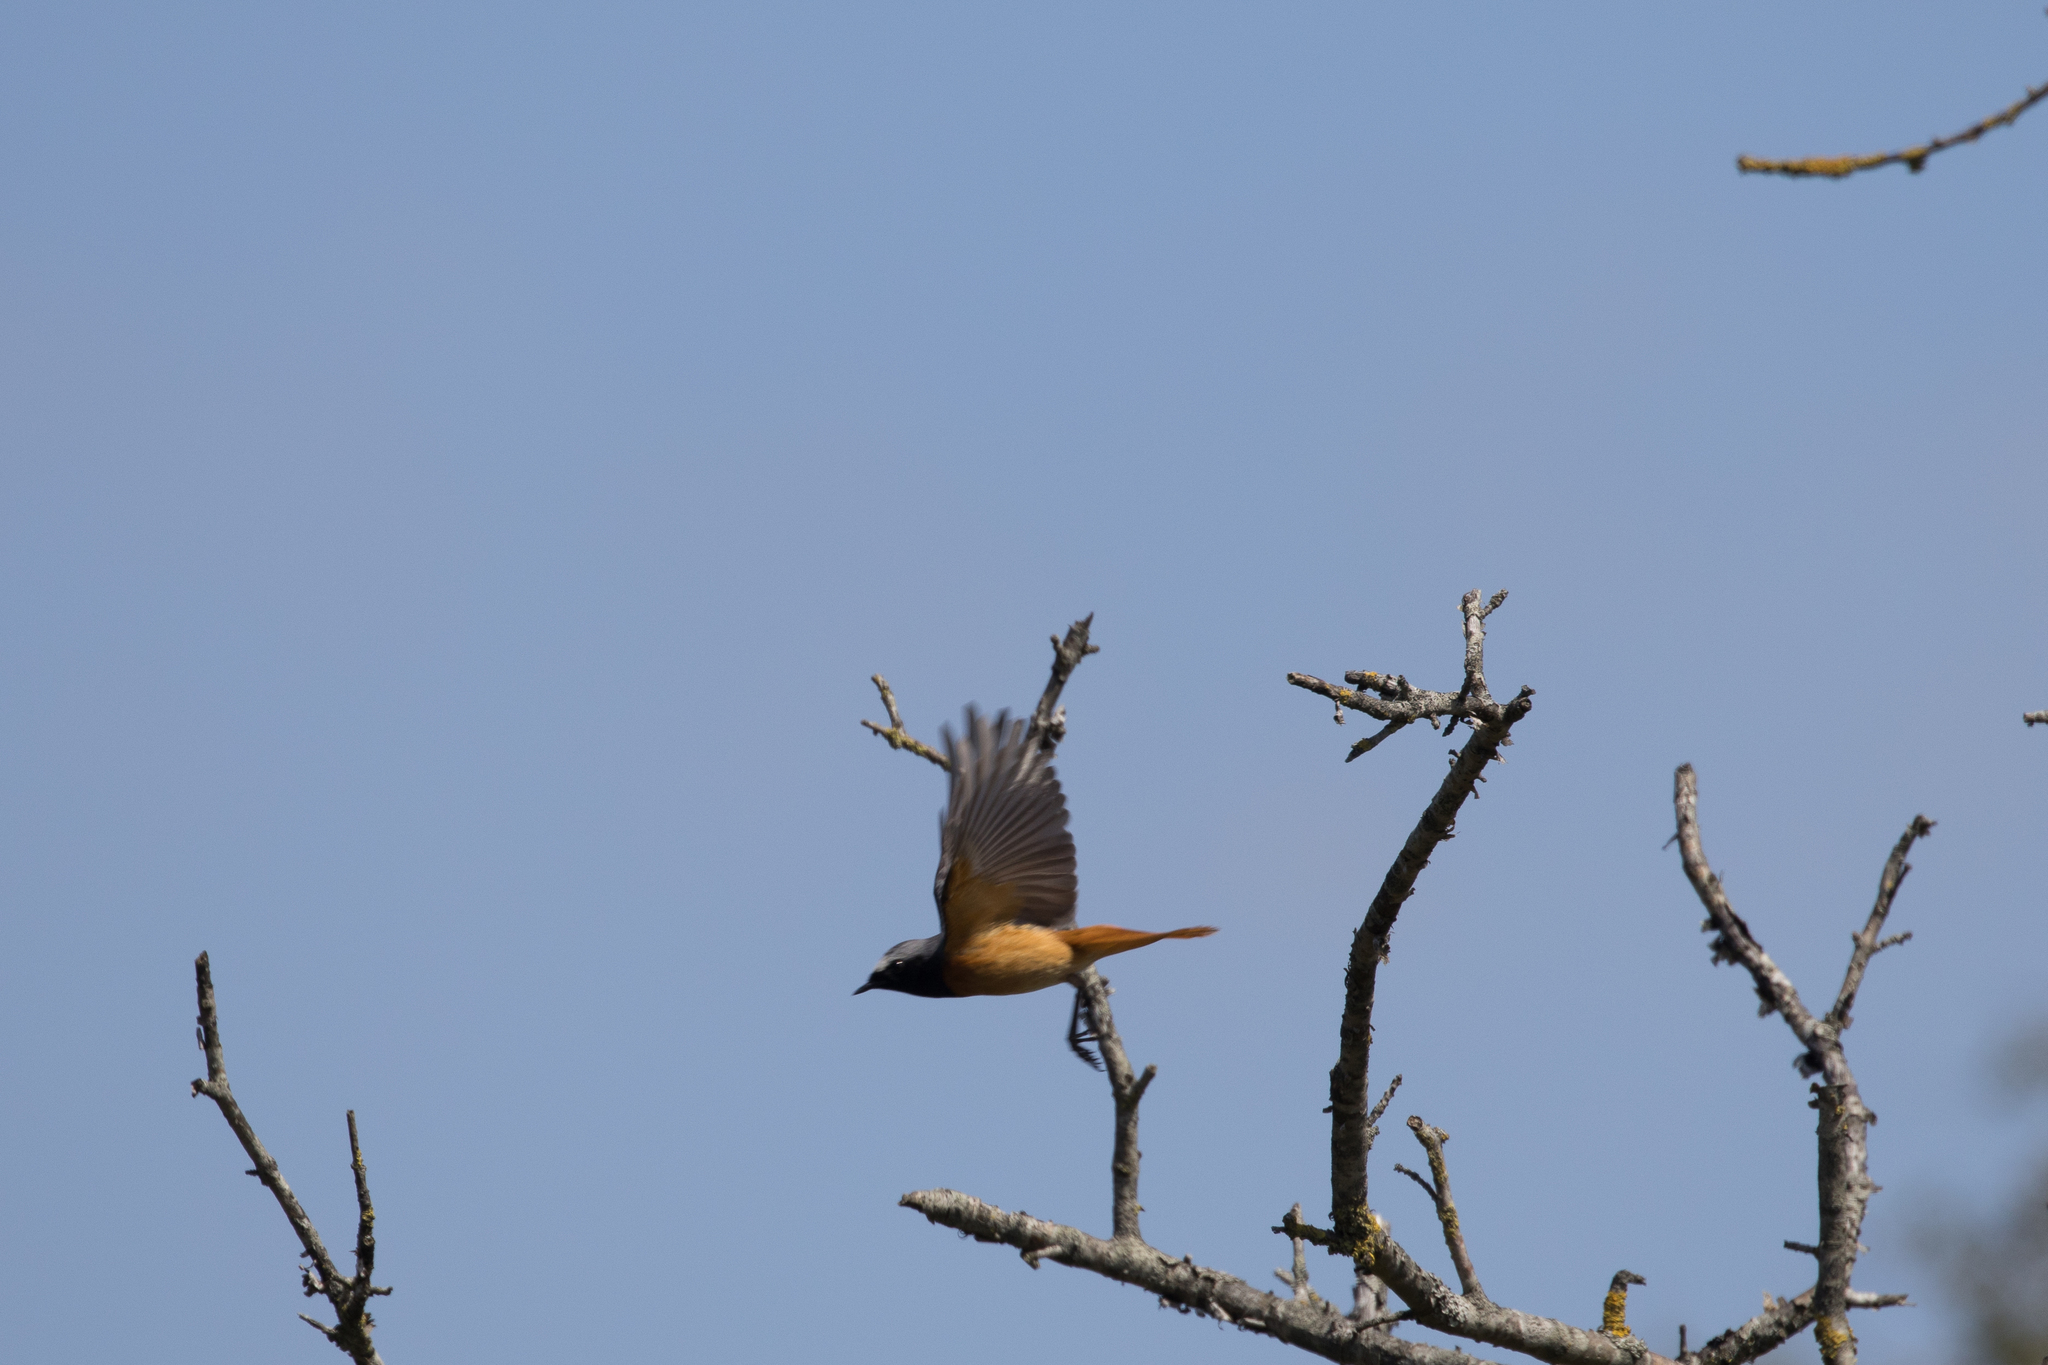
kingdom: Animalia
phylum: Chordata
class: Aves
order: Passeriformes
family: Muscicapidae
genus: Phoenicurus
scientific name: Phoenicurus phoenicurus
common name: Common redstart
